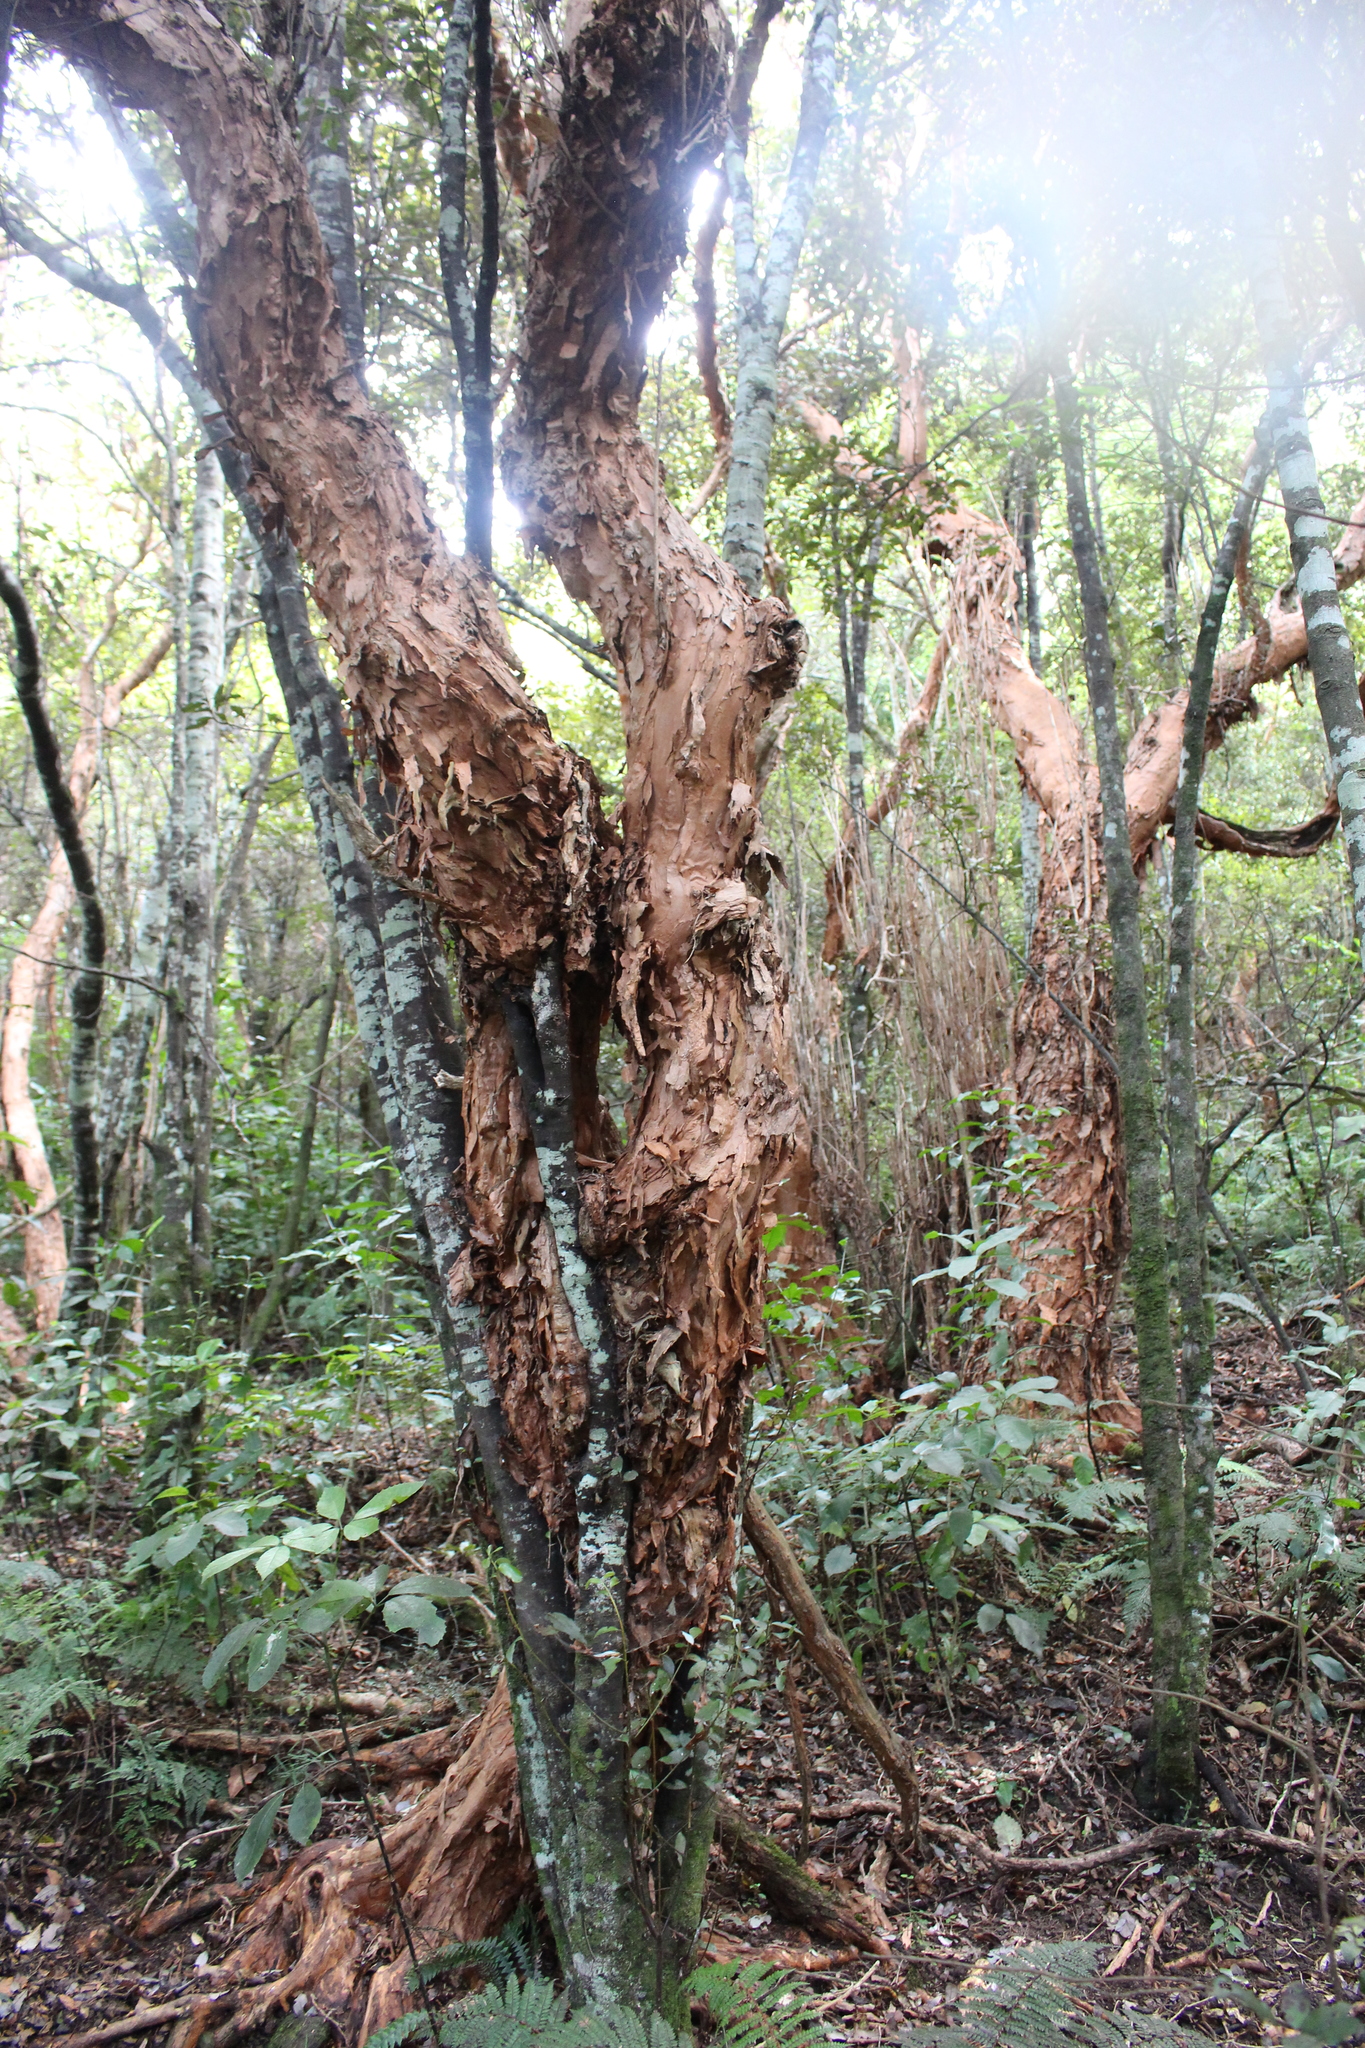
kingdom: Plantae
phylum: Tracheophyta
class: Magnoliopsida
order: Myrtales
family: Onagraceae
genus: Fuchsia
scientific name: Fuchsia excorticata
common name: Tree fuchsia
